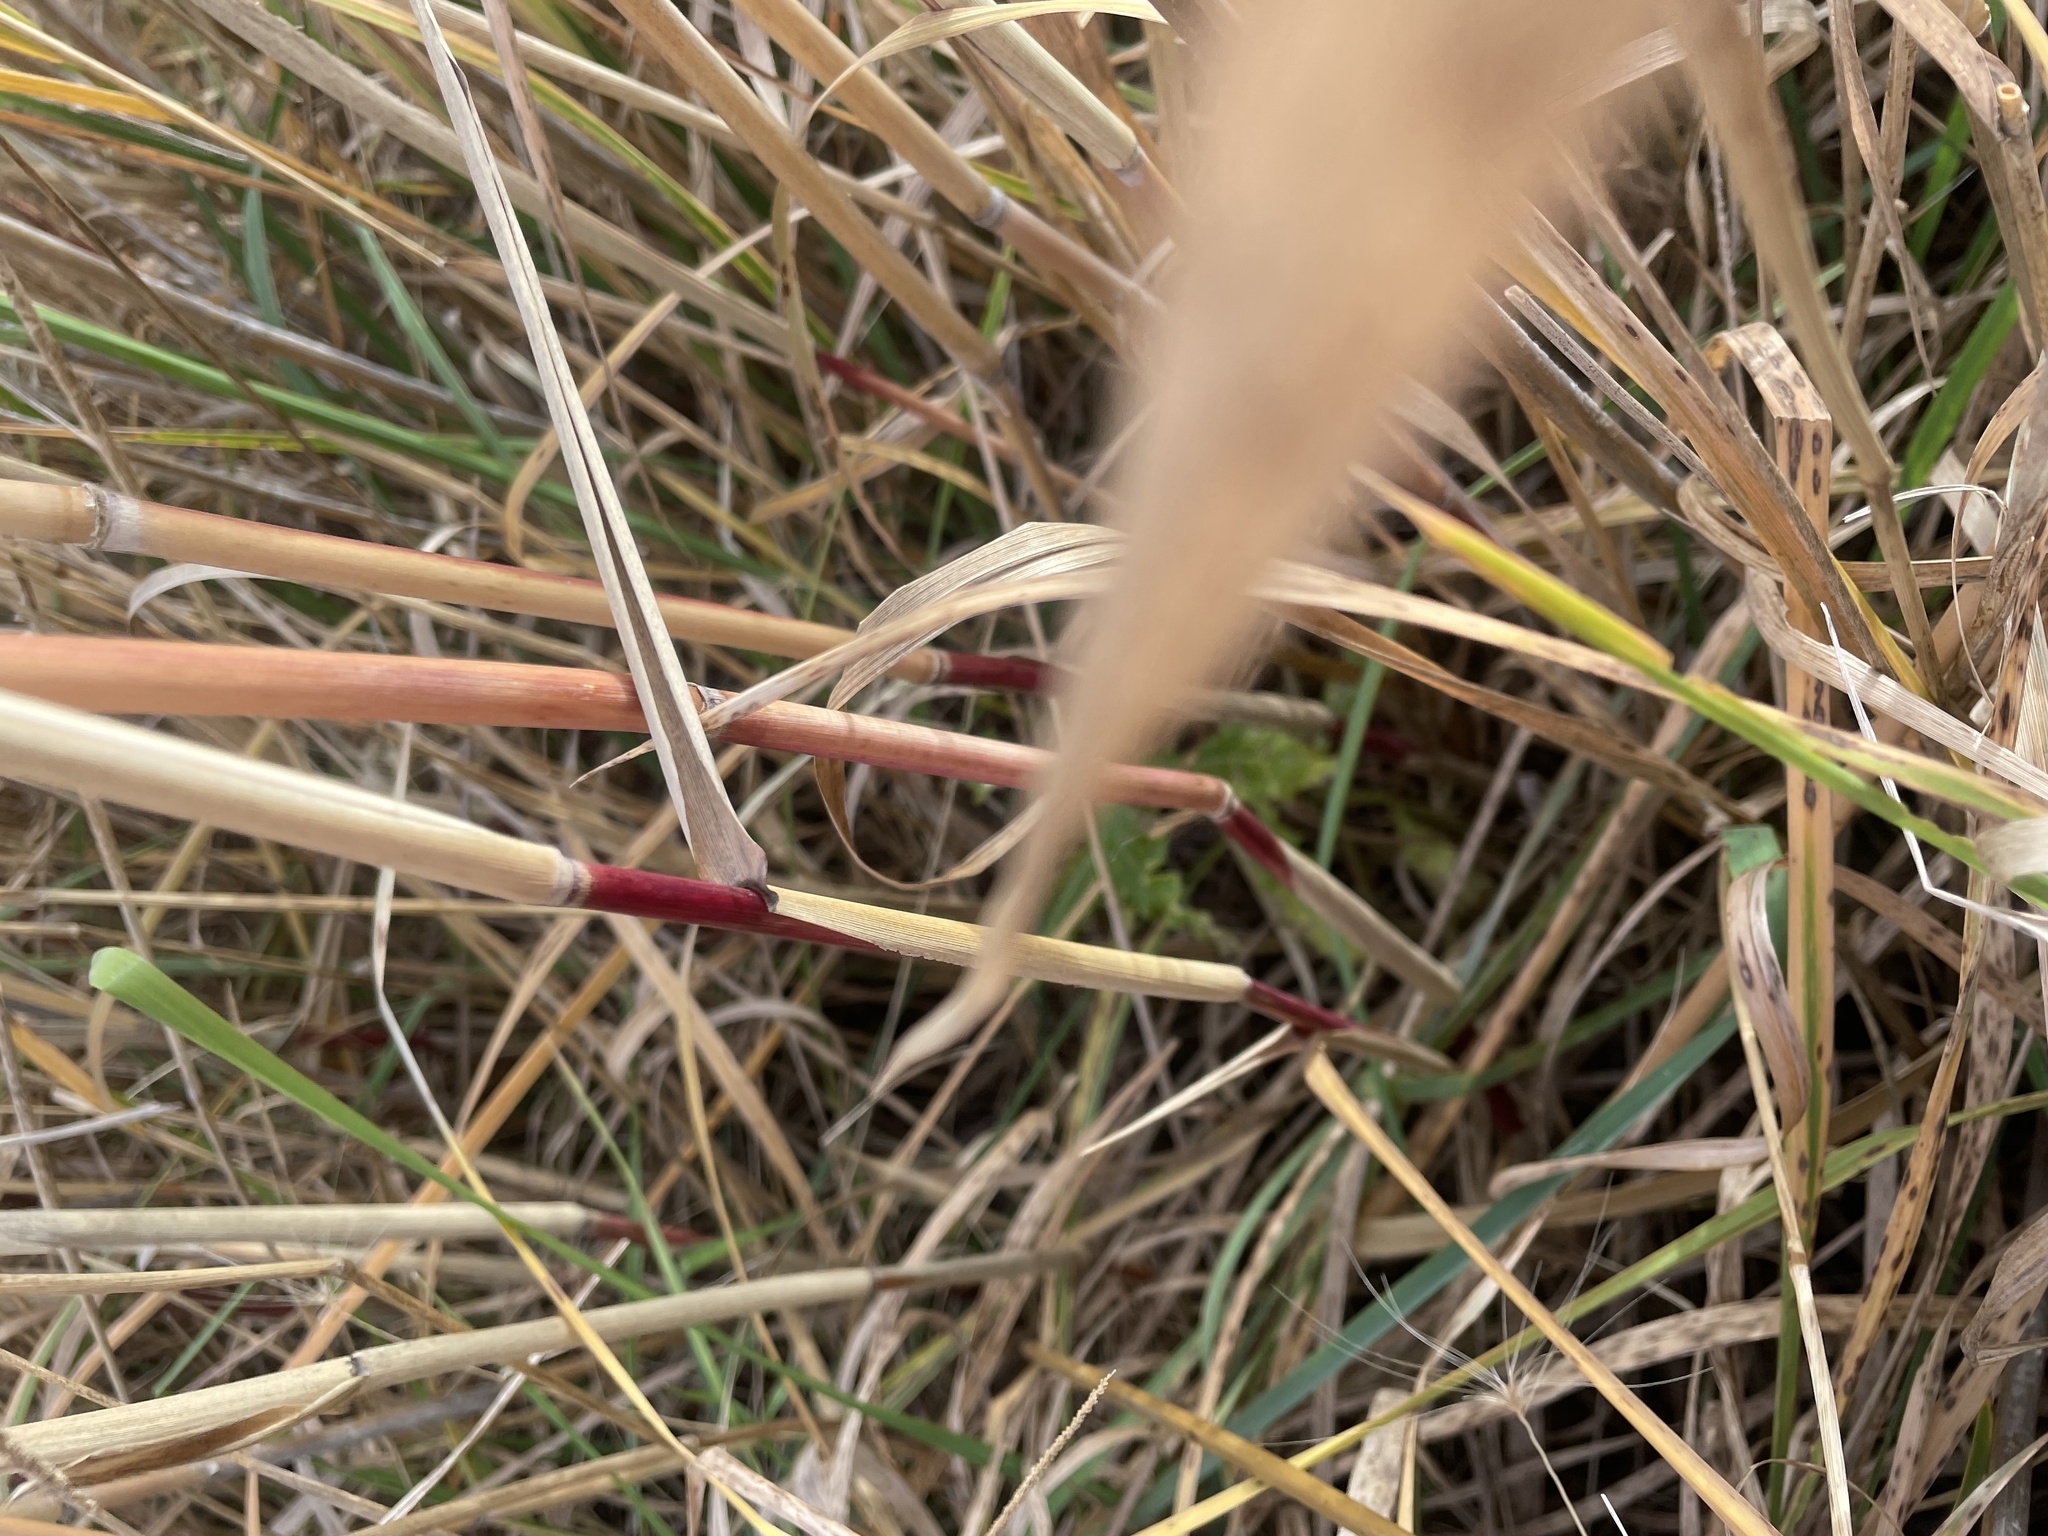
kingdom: Plantae
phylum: Tracheophyta
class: Liliopsida
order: Poales
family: Poaceae
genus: Phragmites
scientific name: Phragmites australis
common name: Common reed
